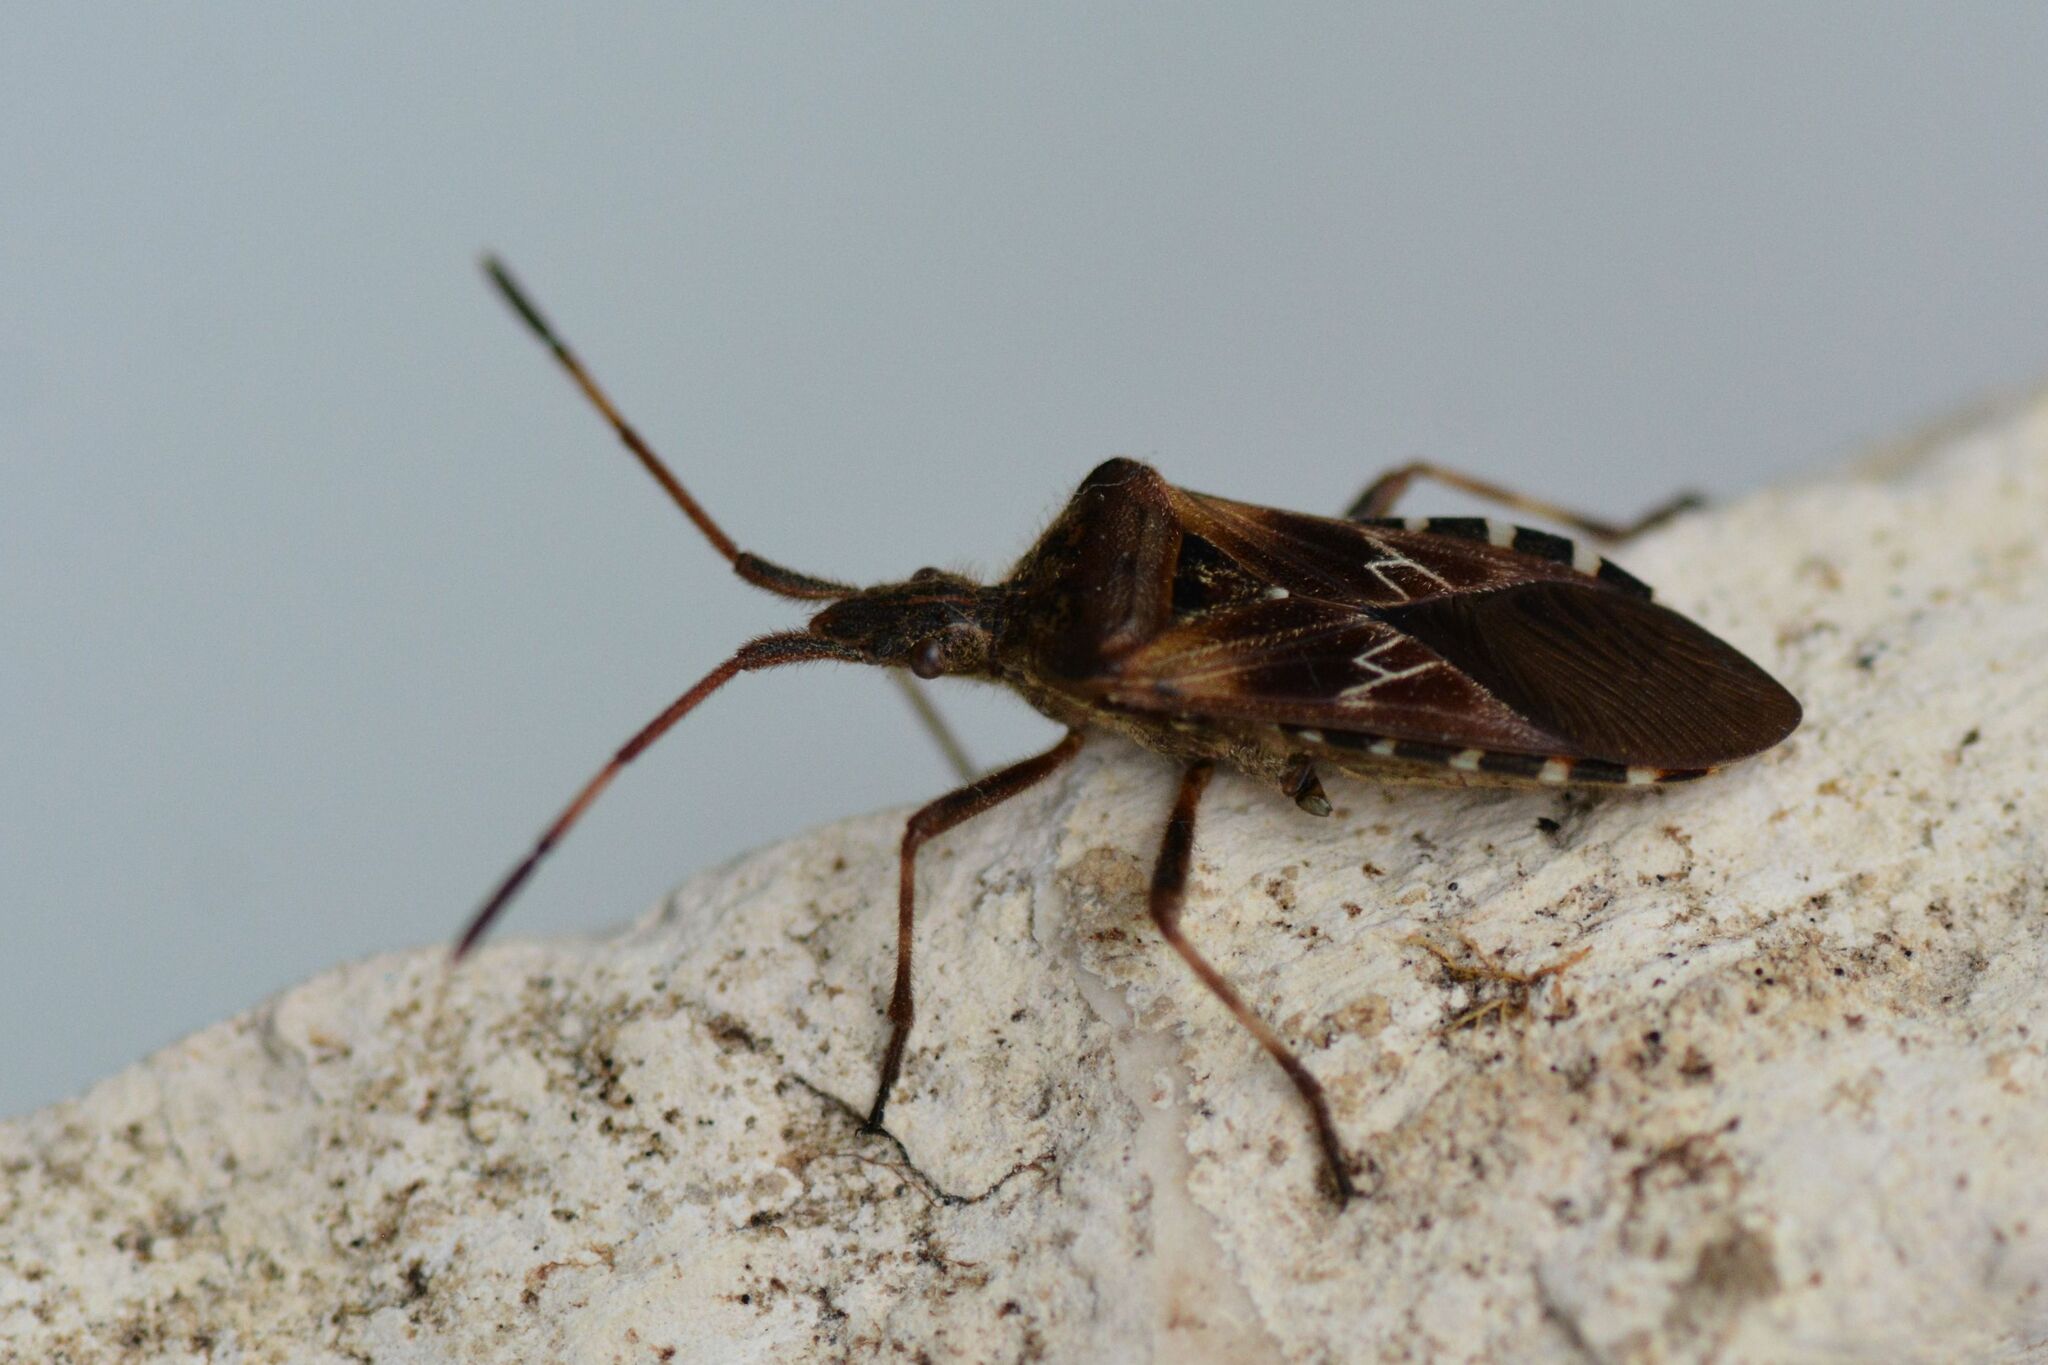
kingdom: Animalia
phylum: Arthropoda
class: Insecta
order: Hemiptera
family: Coreidae
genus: Leptoglossus
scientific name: Leptoglossus occidentalis
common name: Western conifer-seed bug
